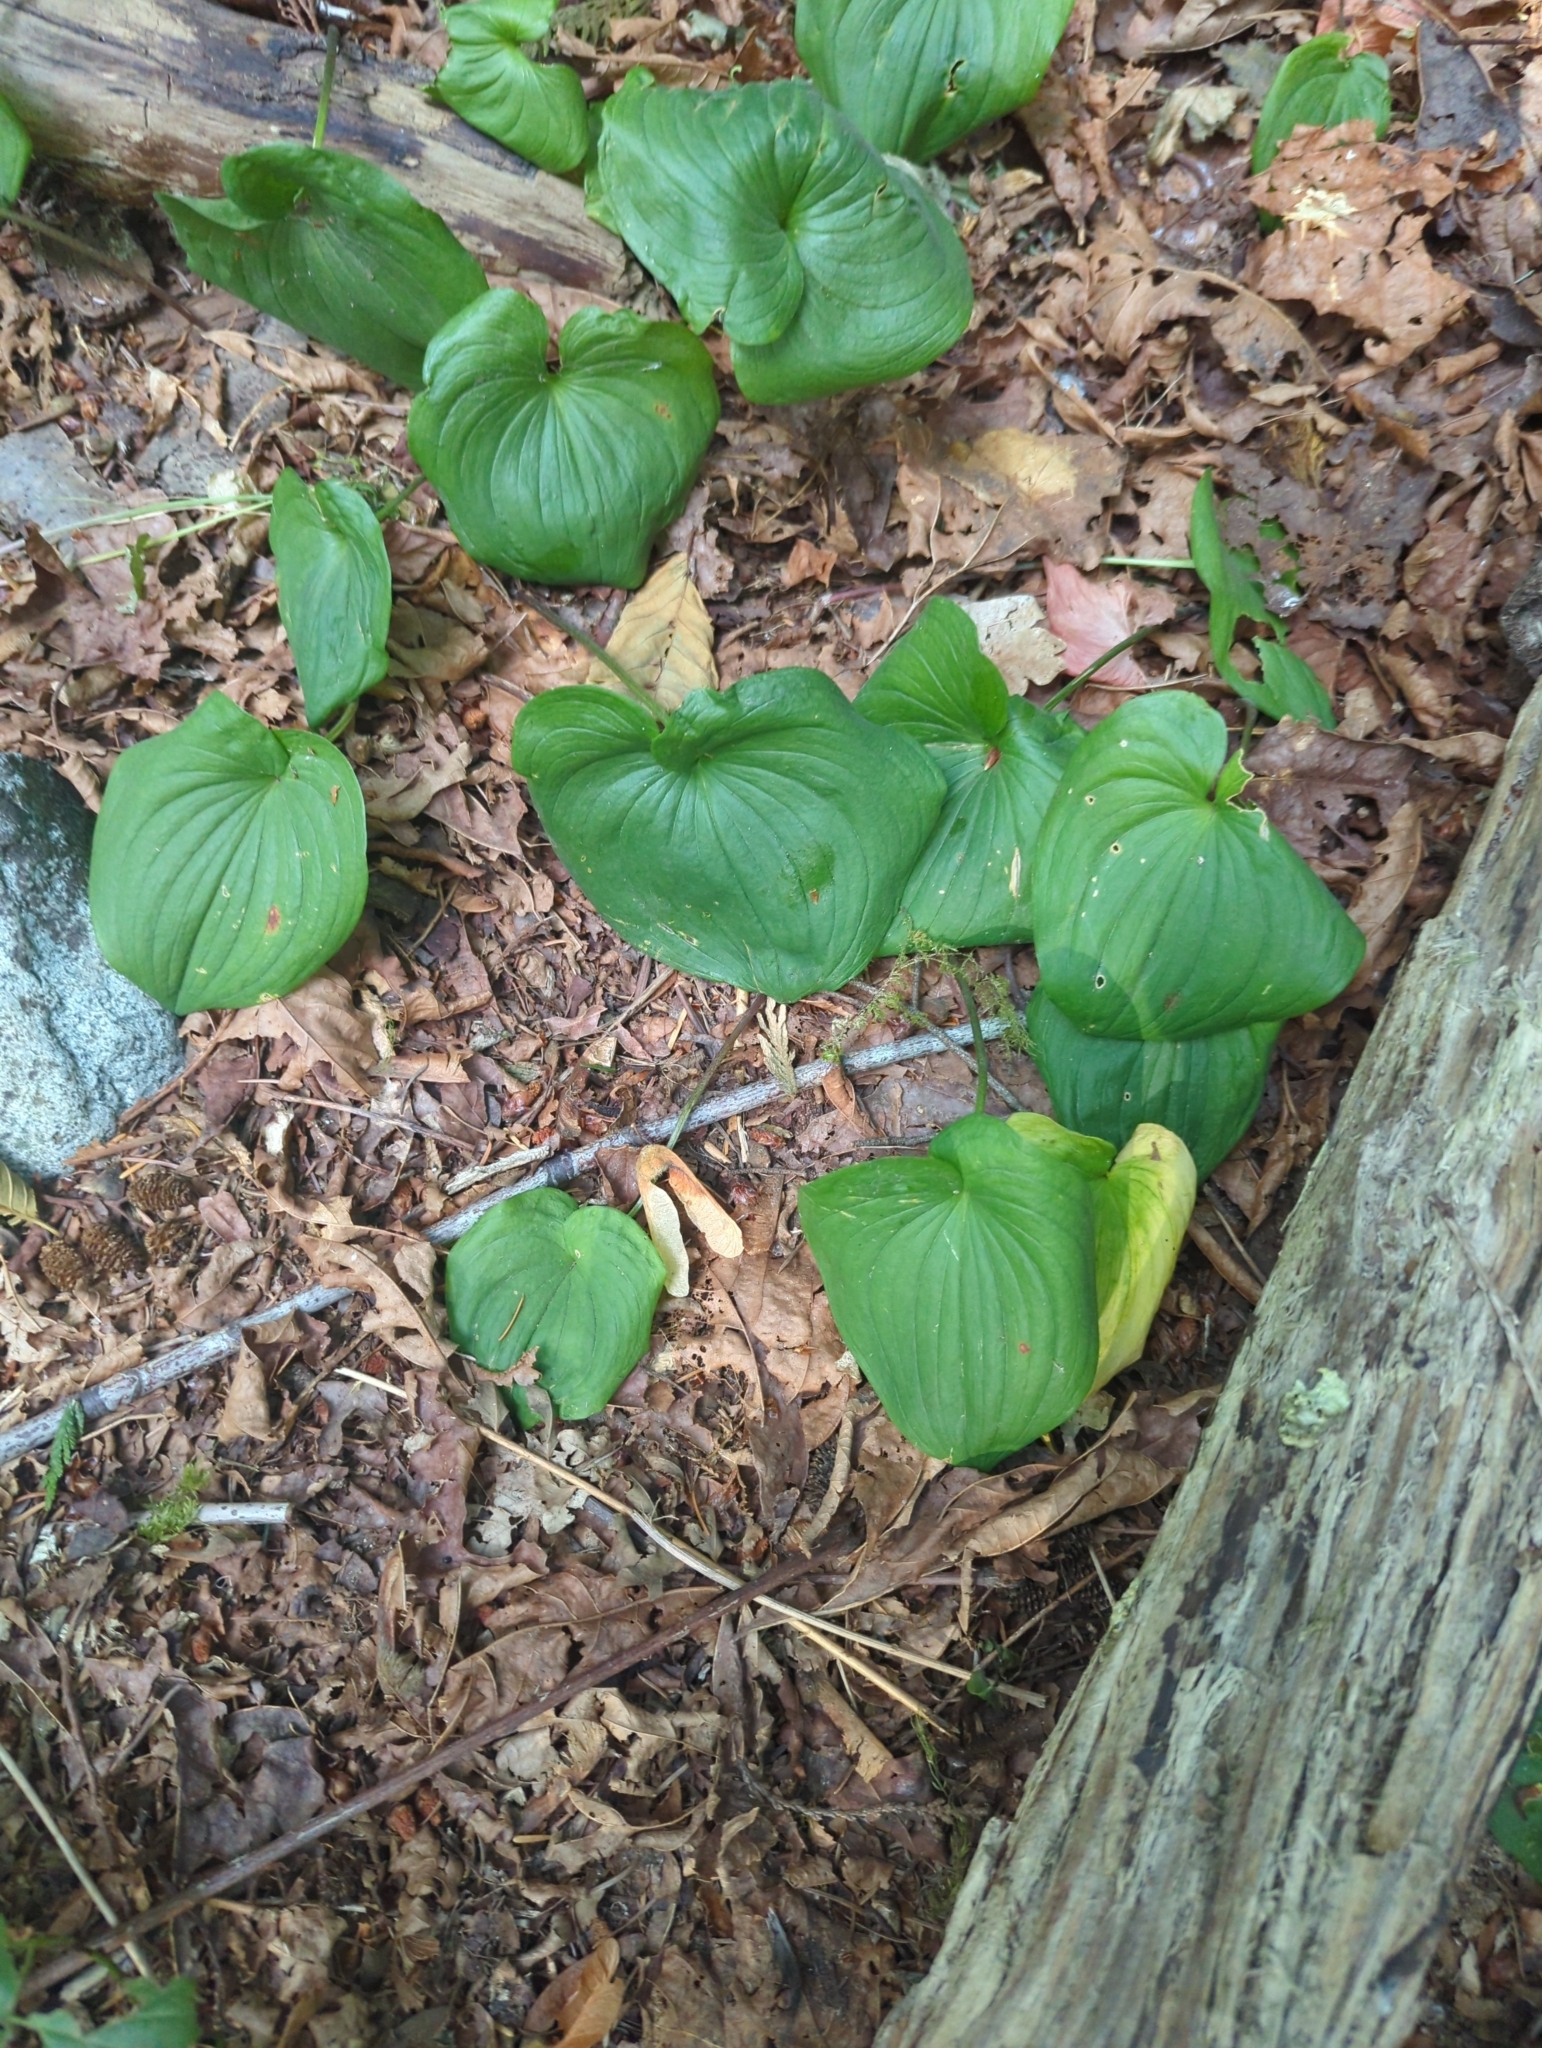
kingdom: Plantae
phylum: Tracheophyta
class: Liliopsida
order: Asparagales
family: Asparagaceae
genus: Maianthemum
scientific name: Maianthemum dilatatum
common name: False lily-of-the-valley
